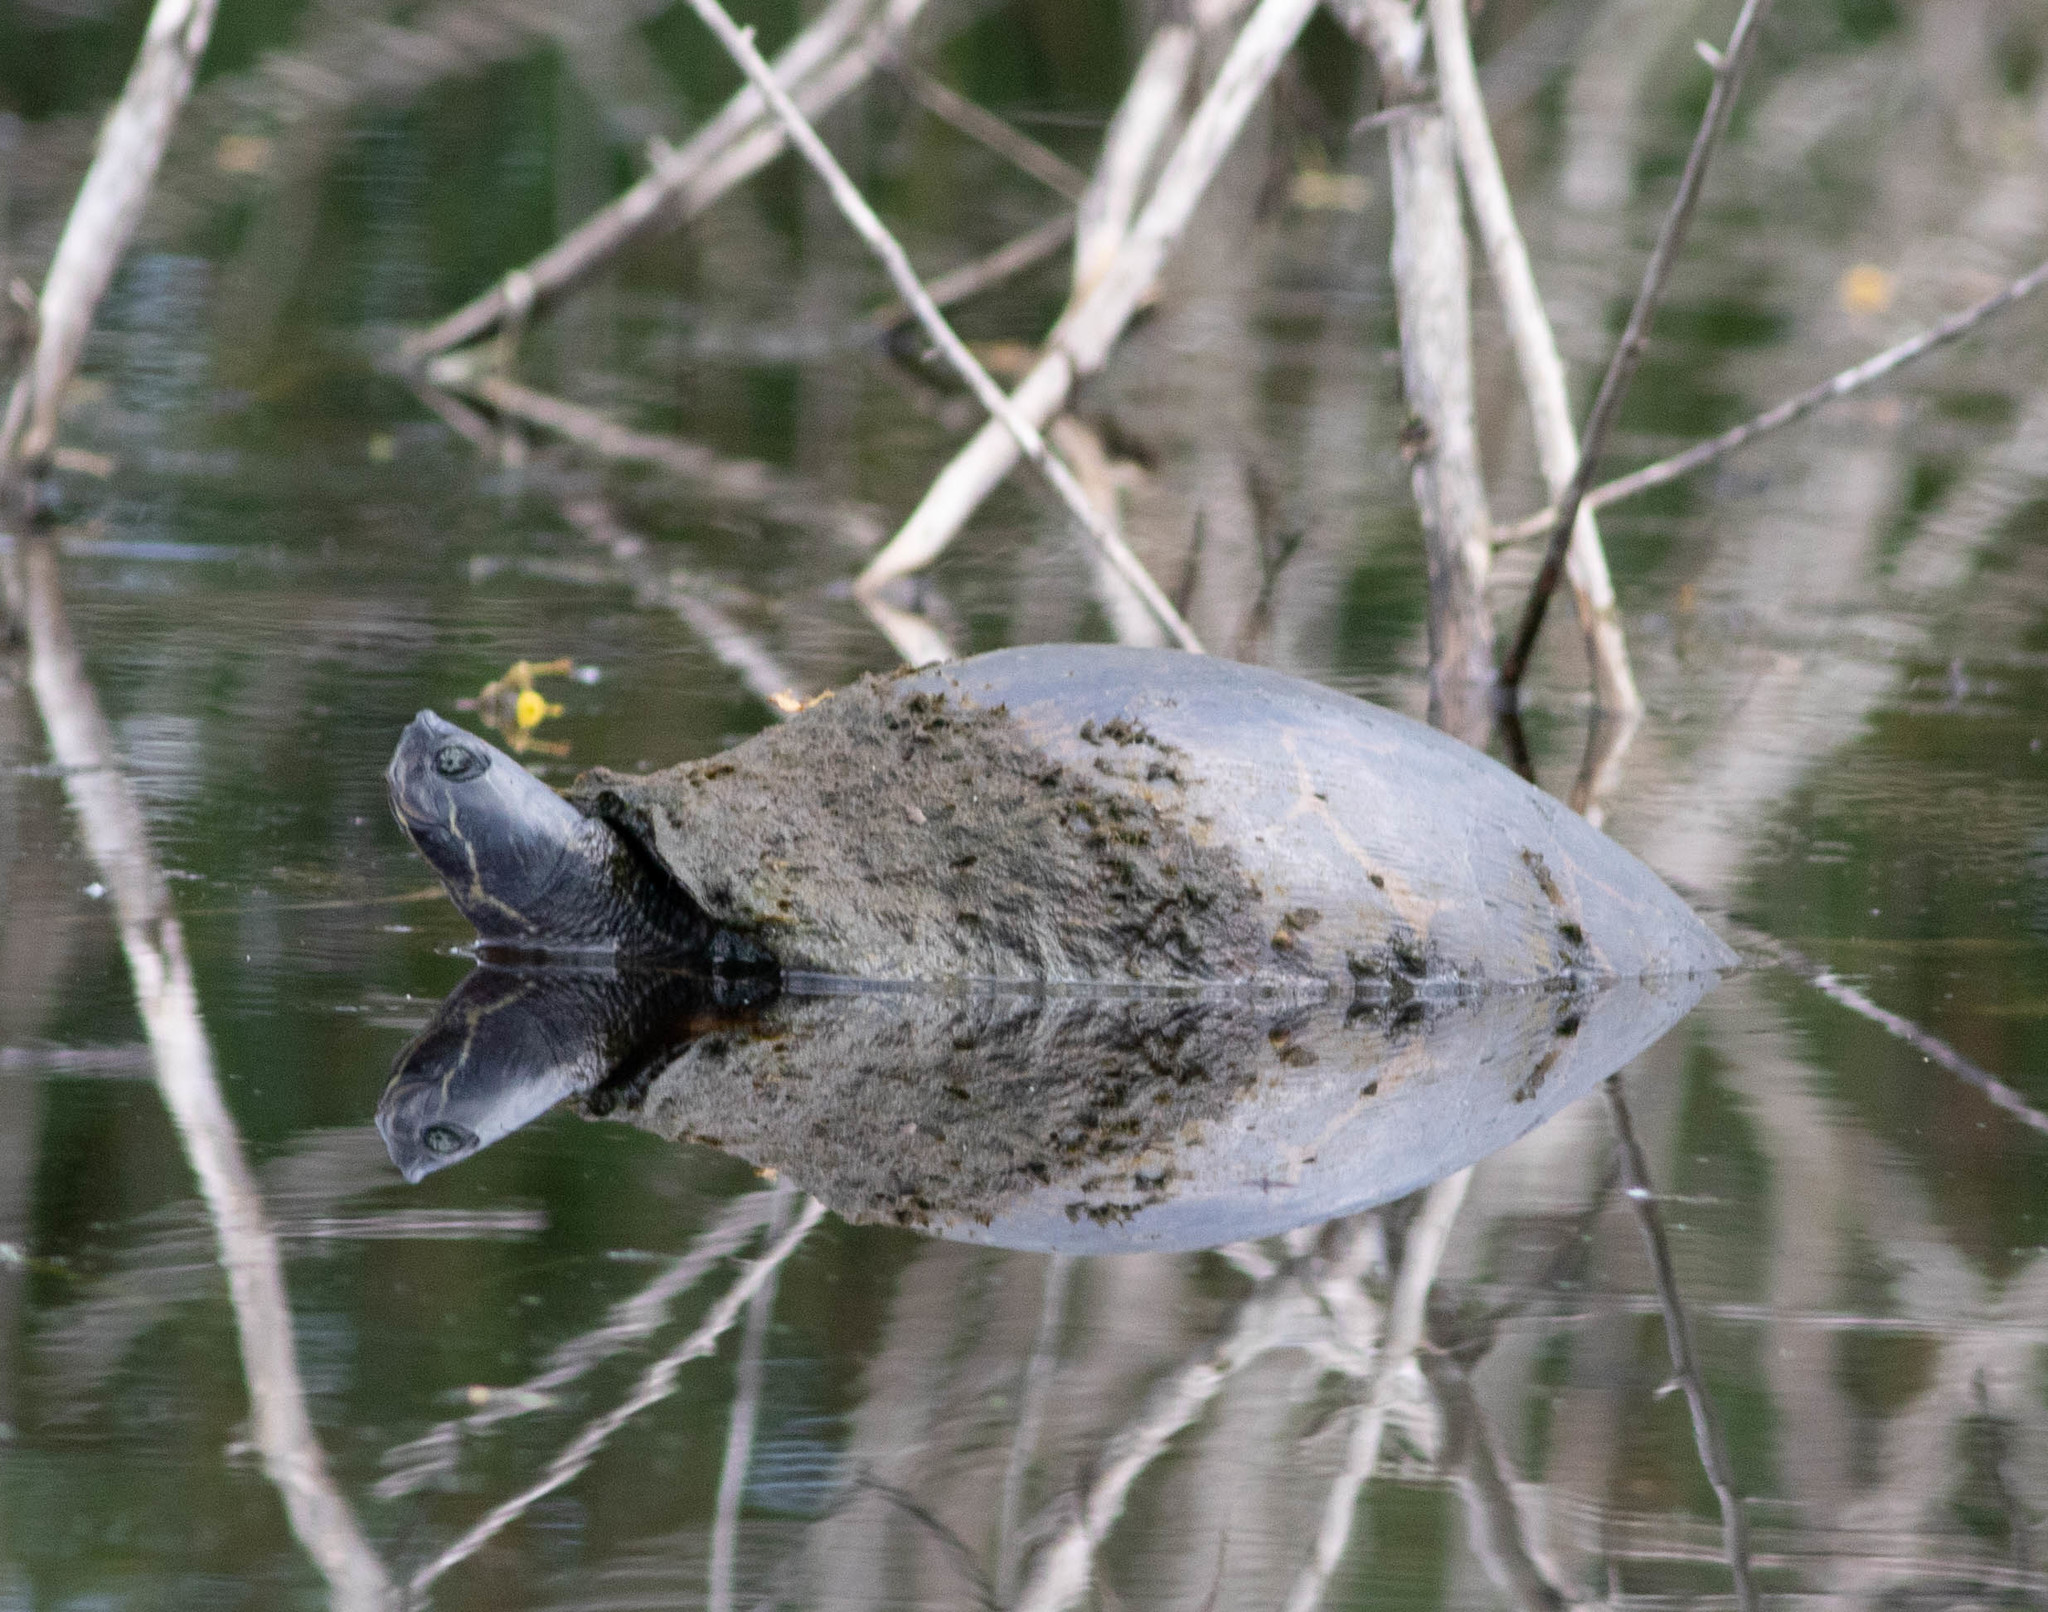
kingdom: Animalia
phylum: Chordata
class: Testudines
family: Emydidae
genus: Pseudemys
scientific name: Pseudemys concinna
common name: Eastern river cooter
